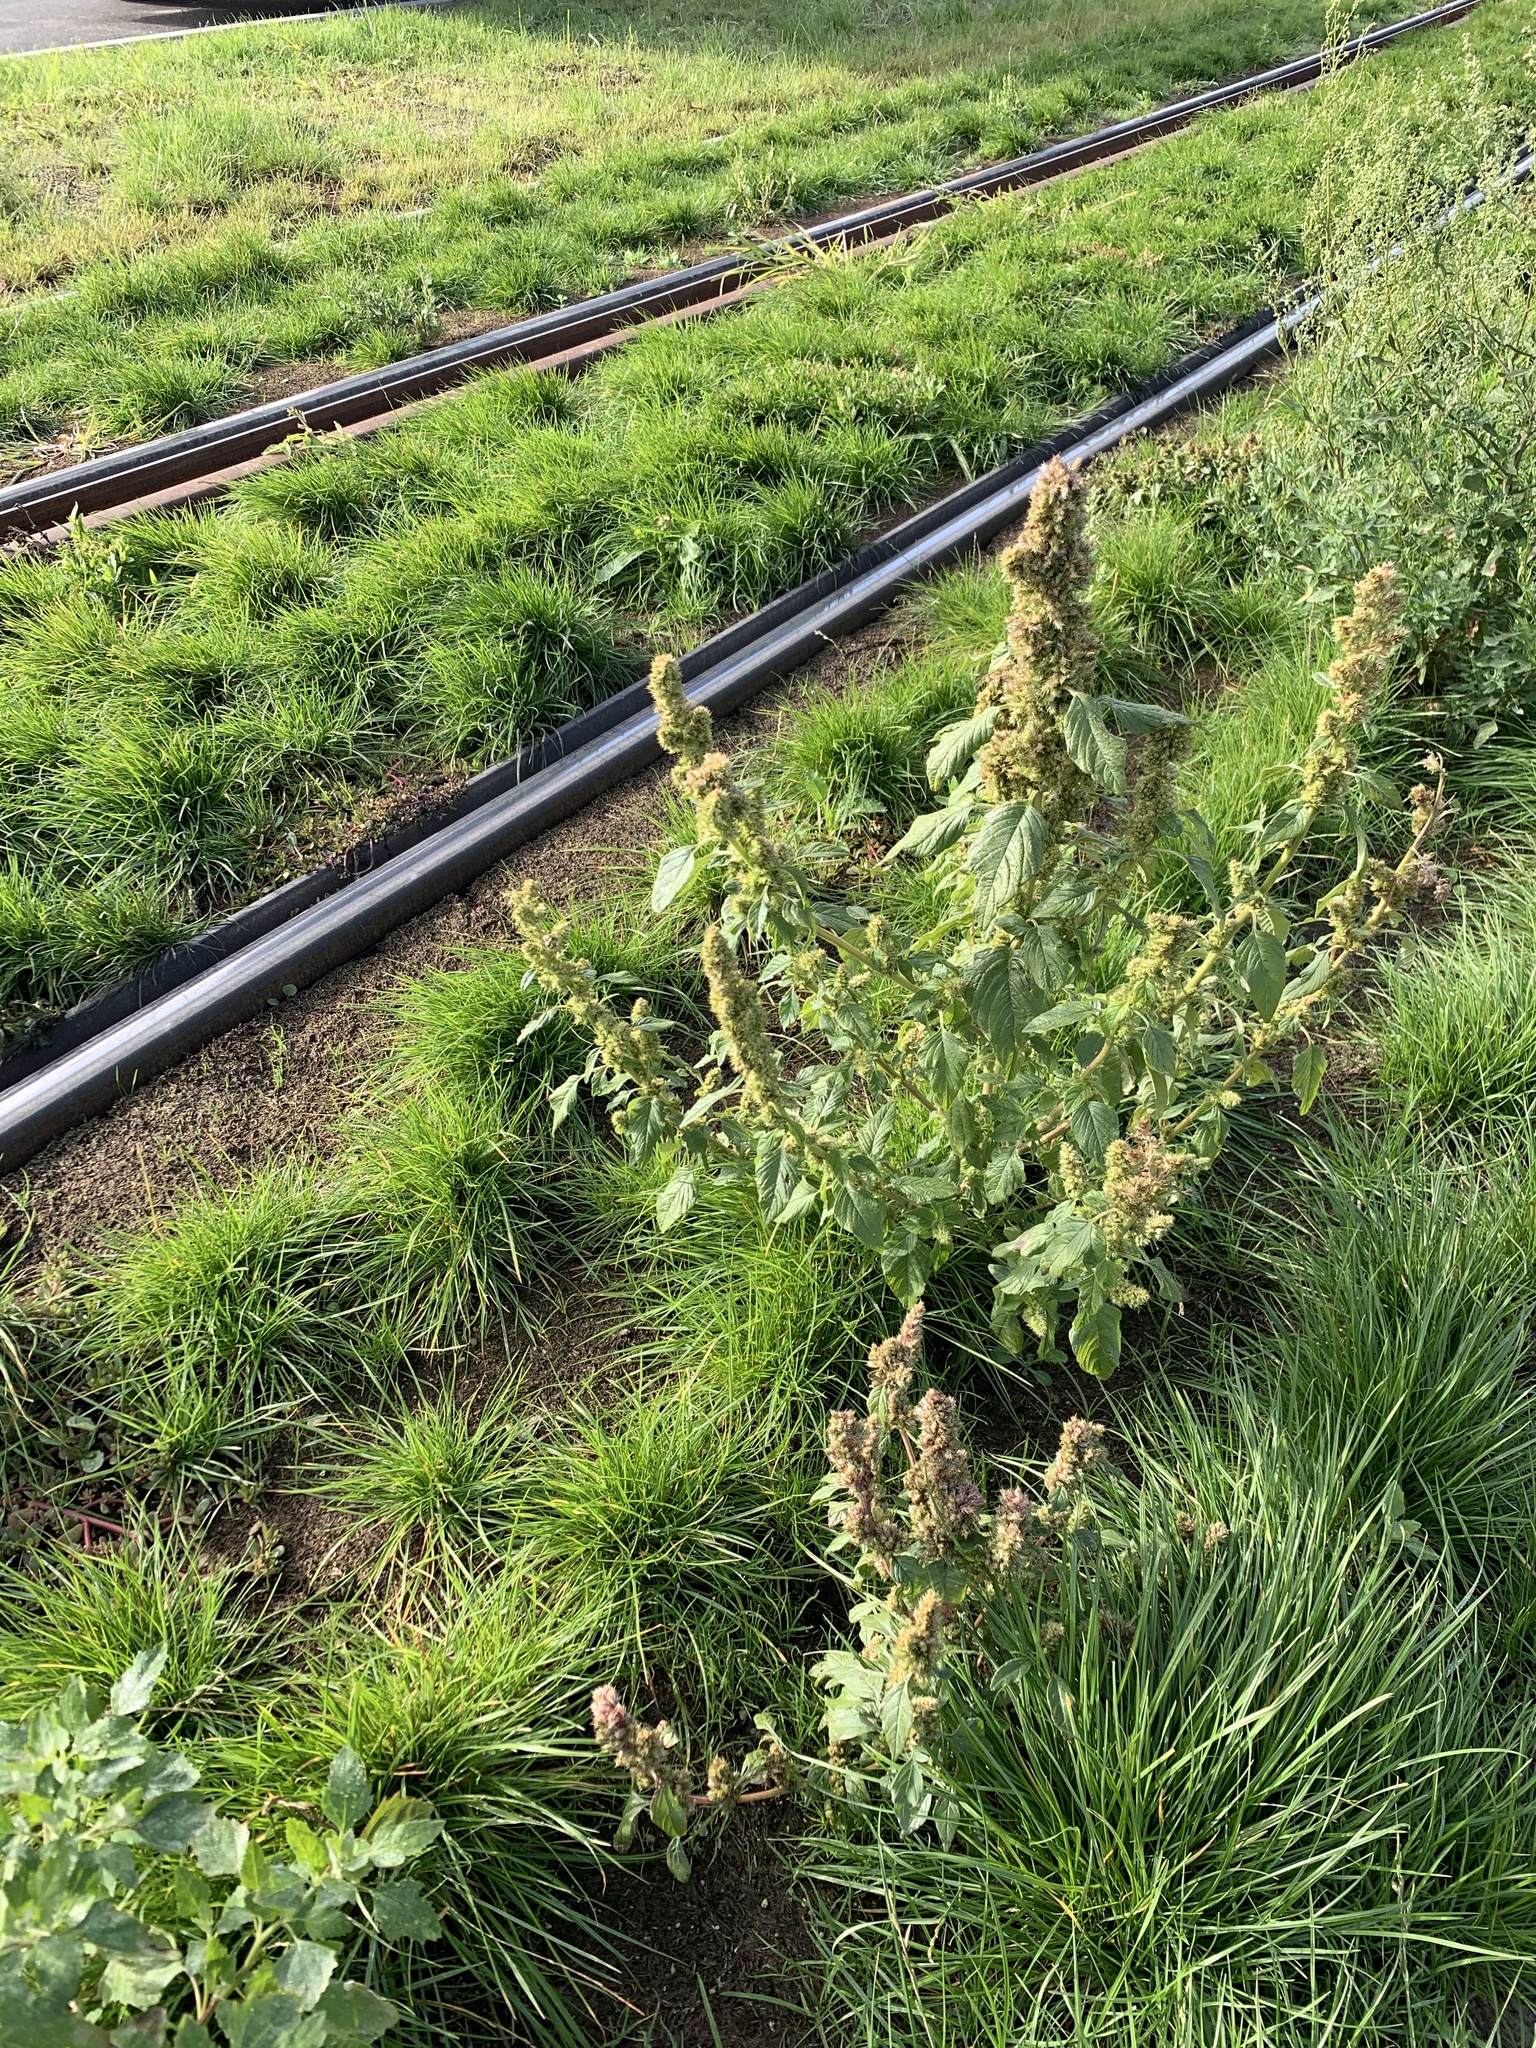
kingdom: Plantae
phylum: Tracheophyta
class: Magnoliopsida
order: Caryophyllales
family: Amaranthaceae
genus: Amaranthus
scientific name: Amaranthus retroflexus
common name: Redroot amaranth
